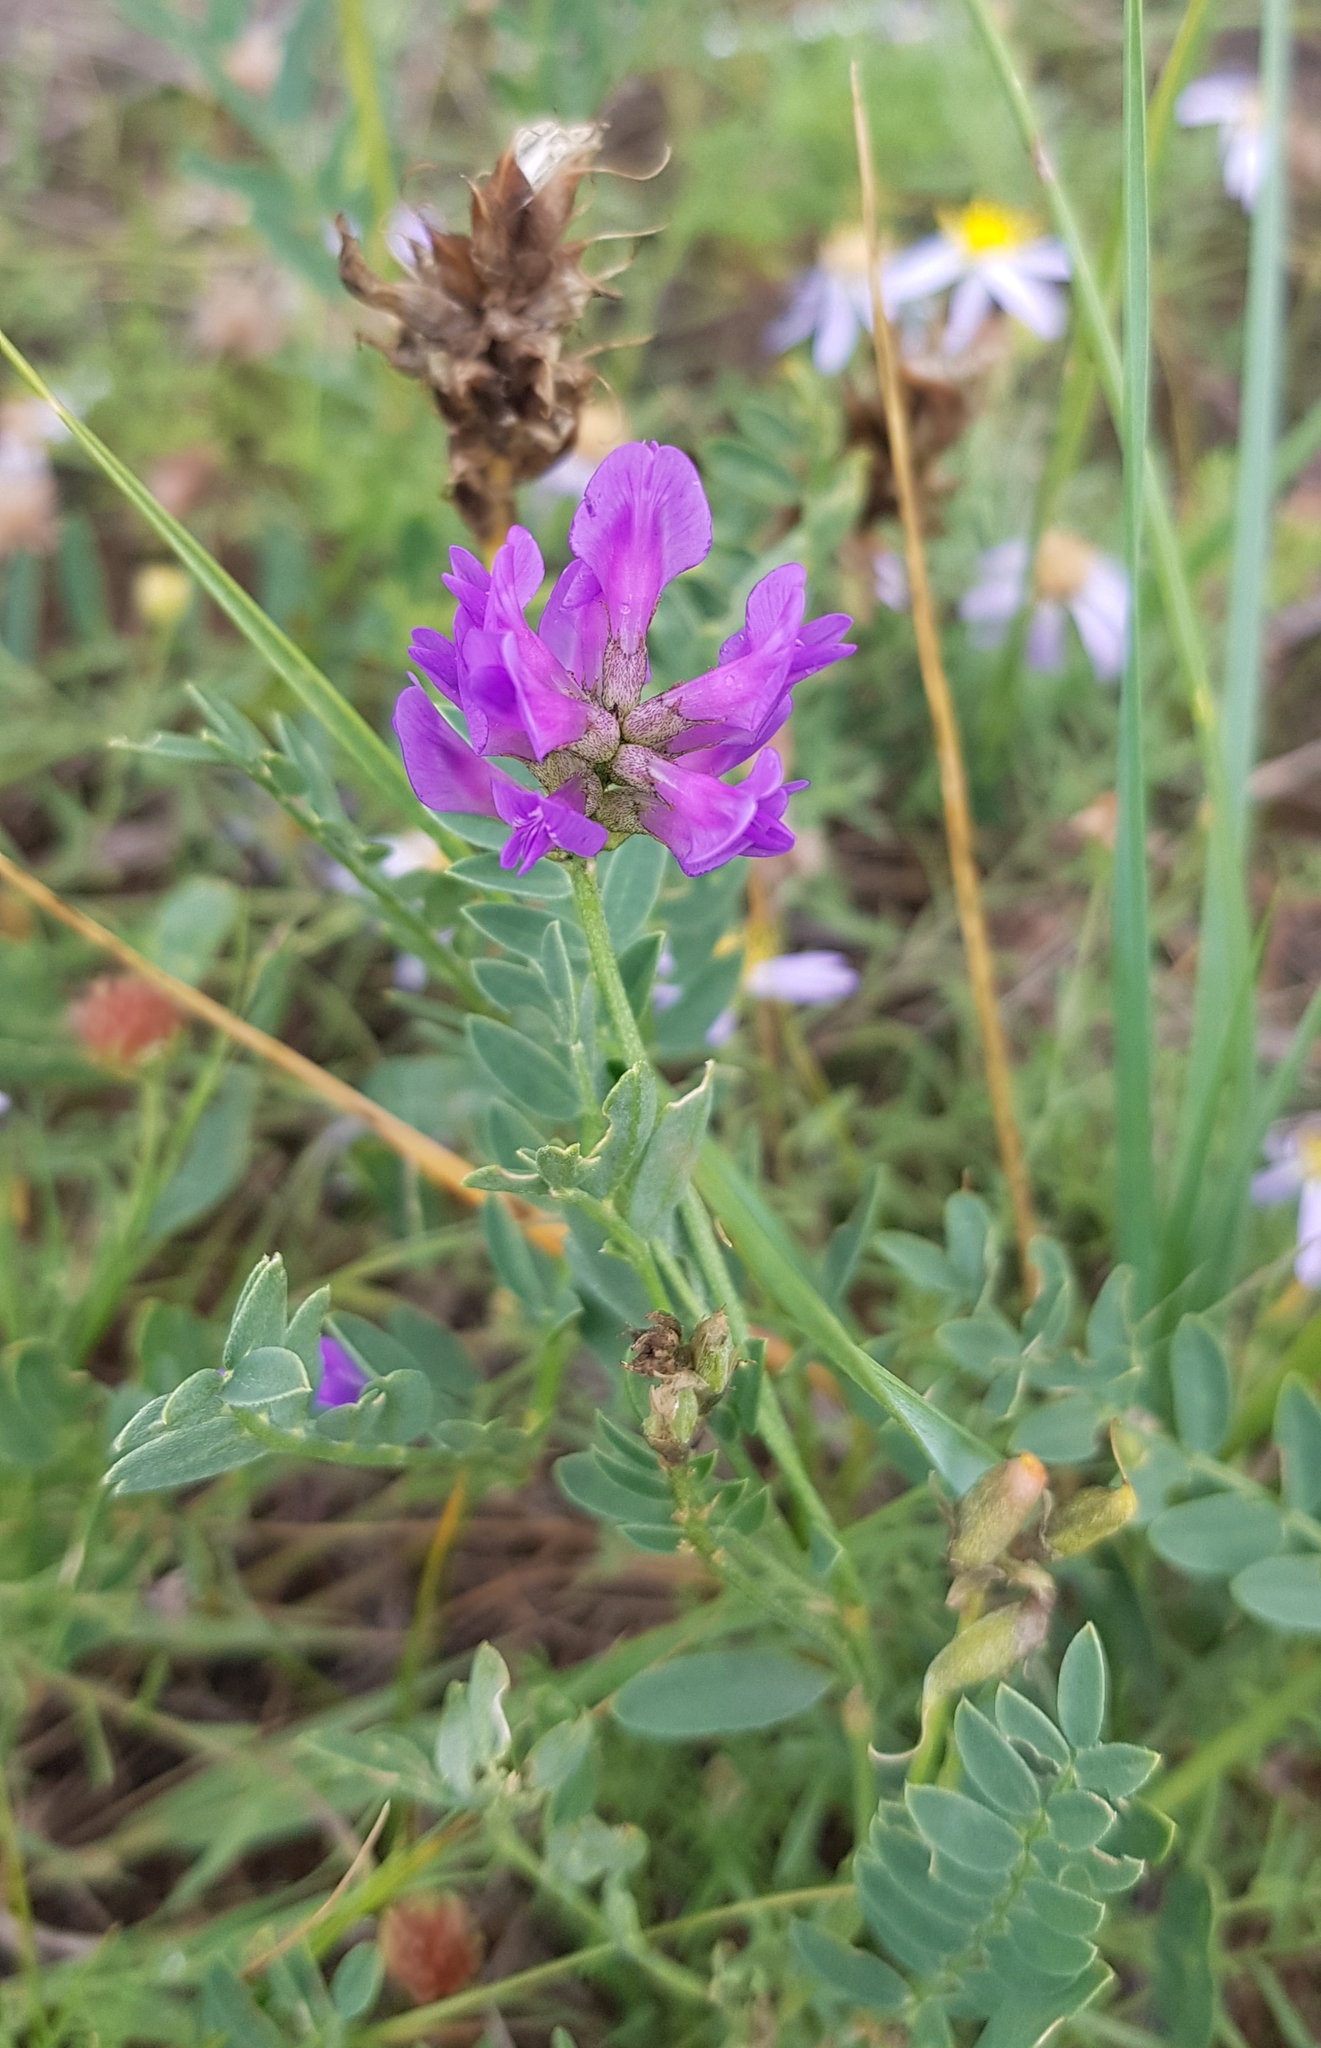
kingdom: Plantae
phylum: Tracheophyta
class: Magnoliopsida
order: Fabales
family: Fabaceae
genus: Astragalus
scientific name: Astragalus danicus
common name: Purple milk-vetch
